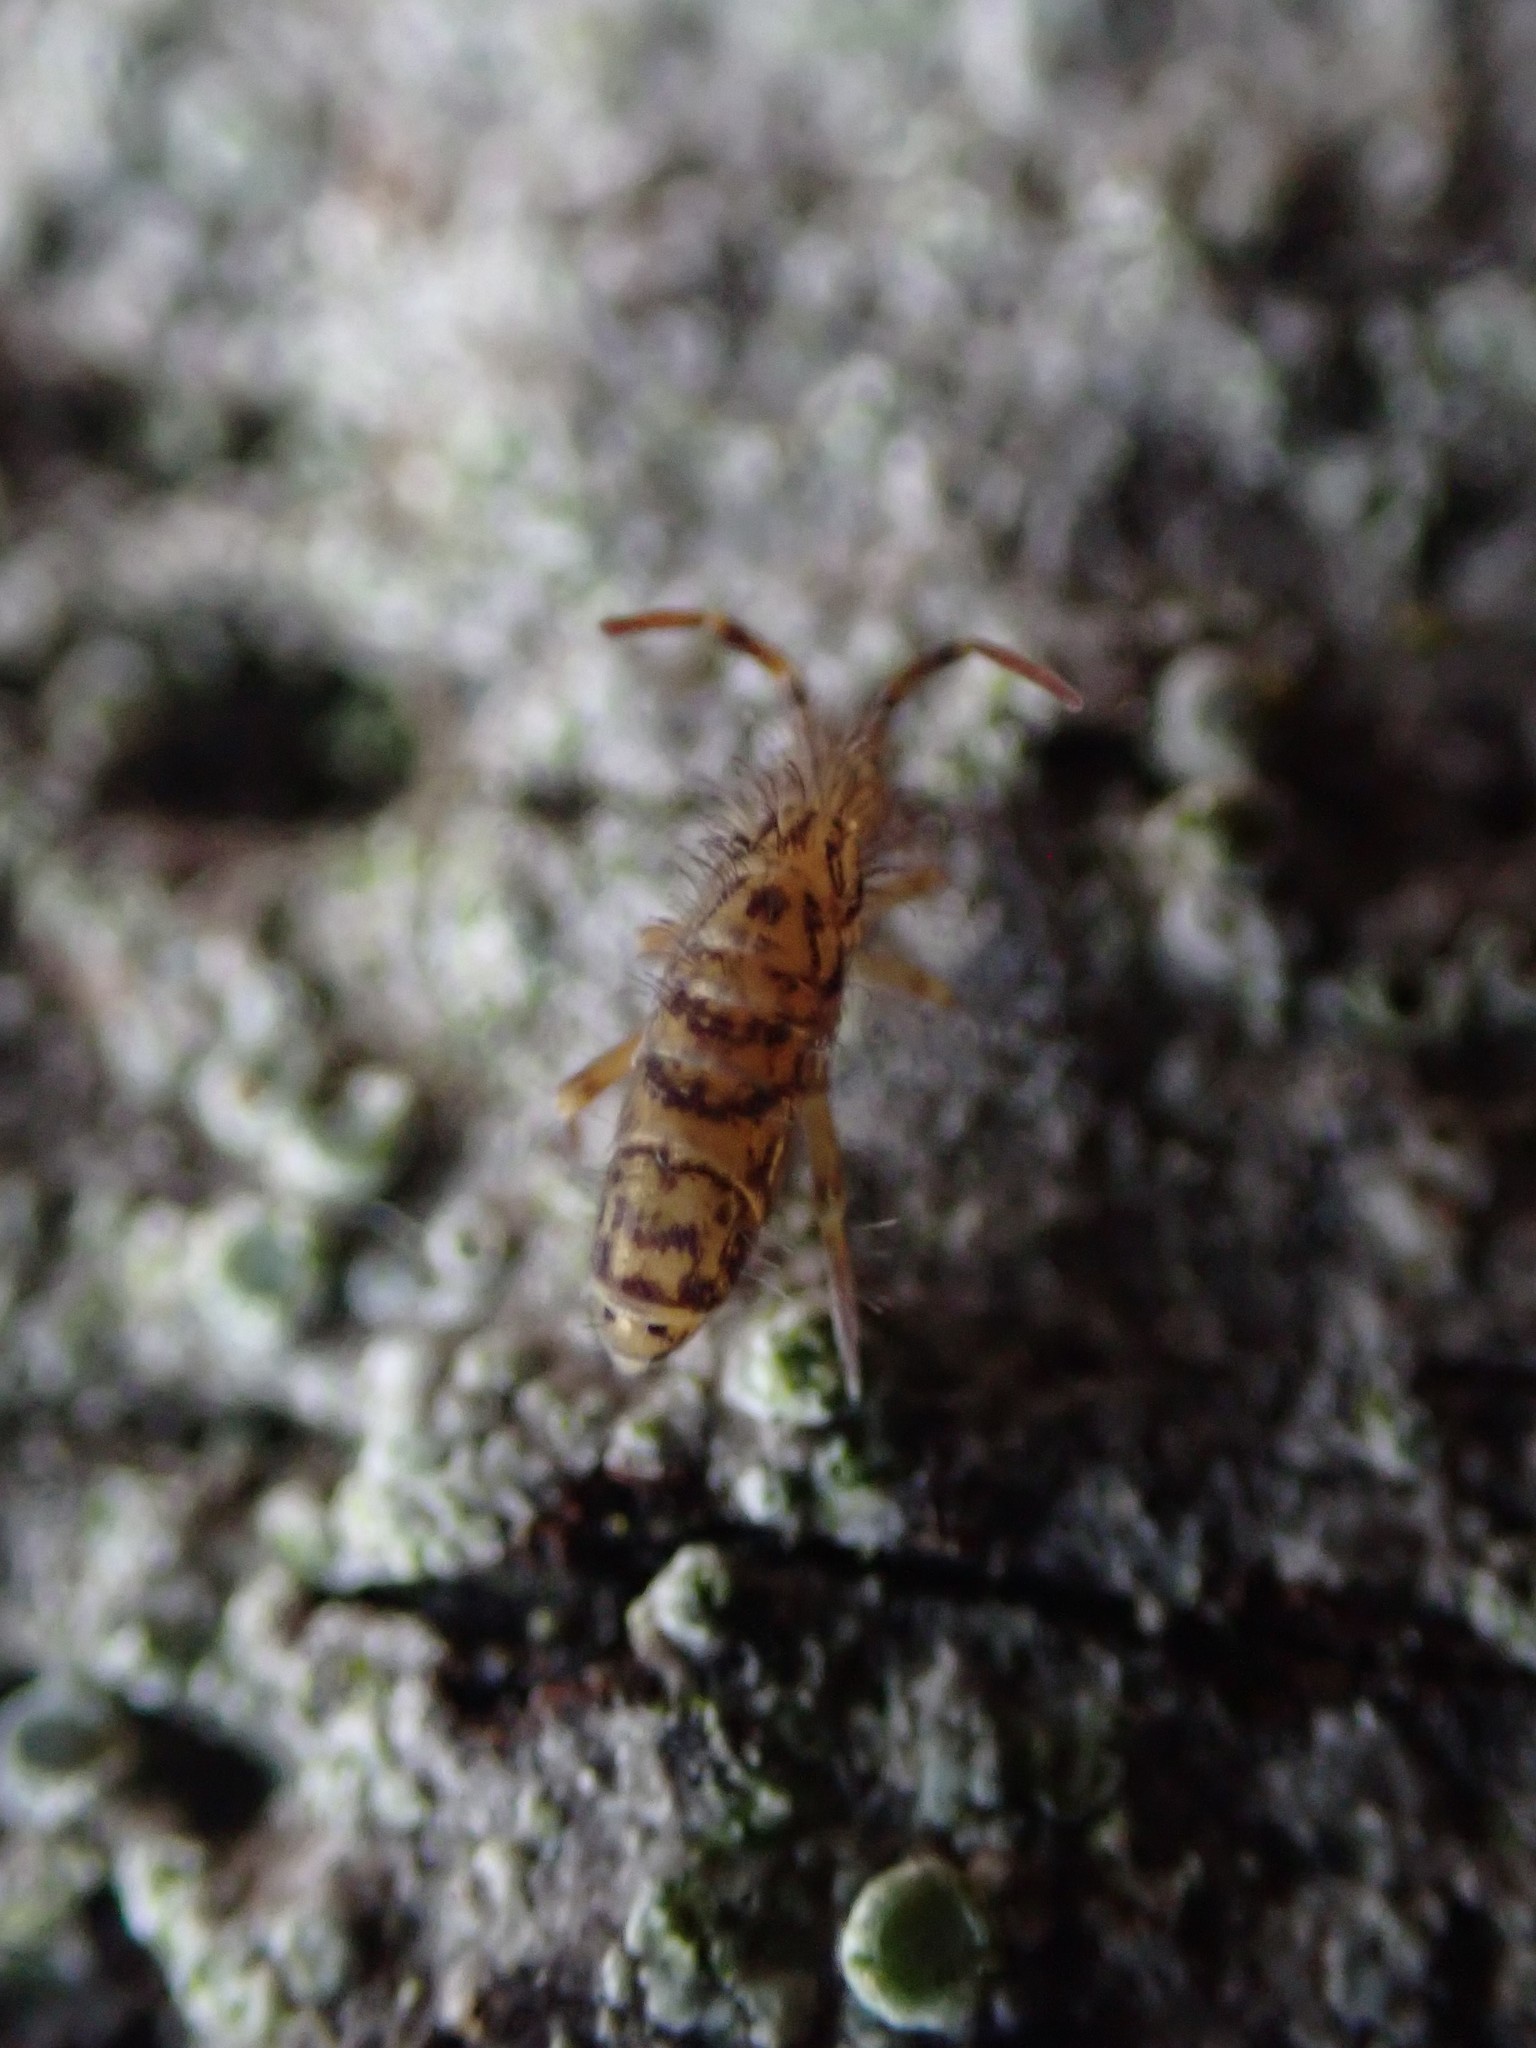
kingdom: Animalia
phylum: Arthropoda
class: Collembola
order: Entomobryomorpha
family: Orchesellidae
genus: Orchesella
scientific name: Orchesella villosa
